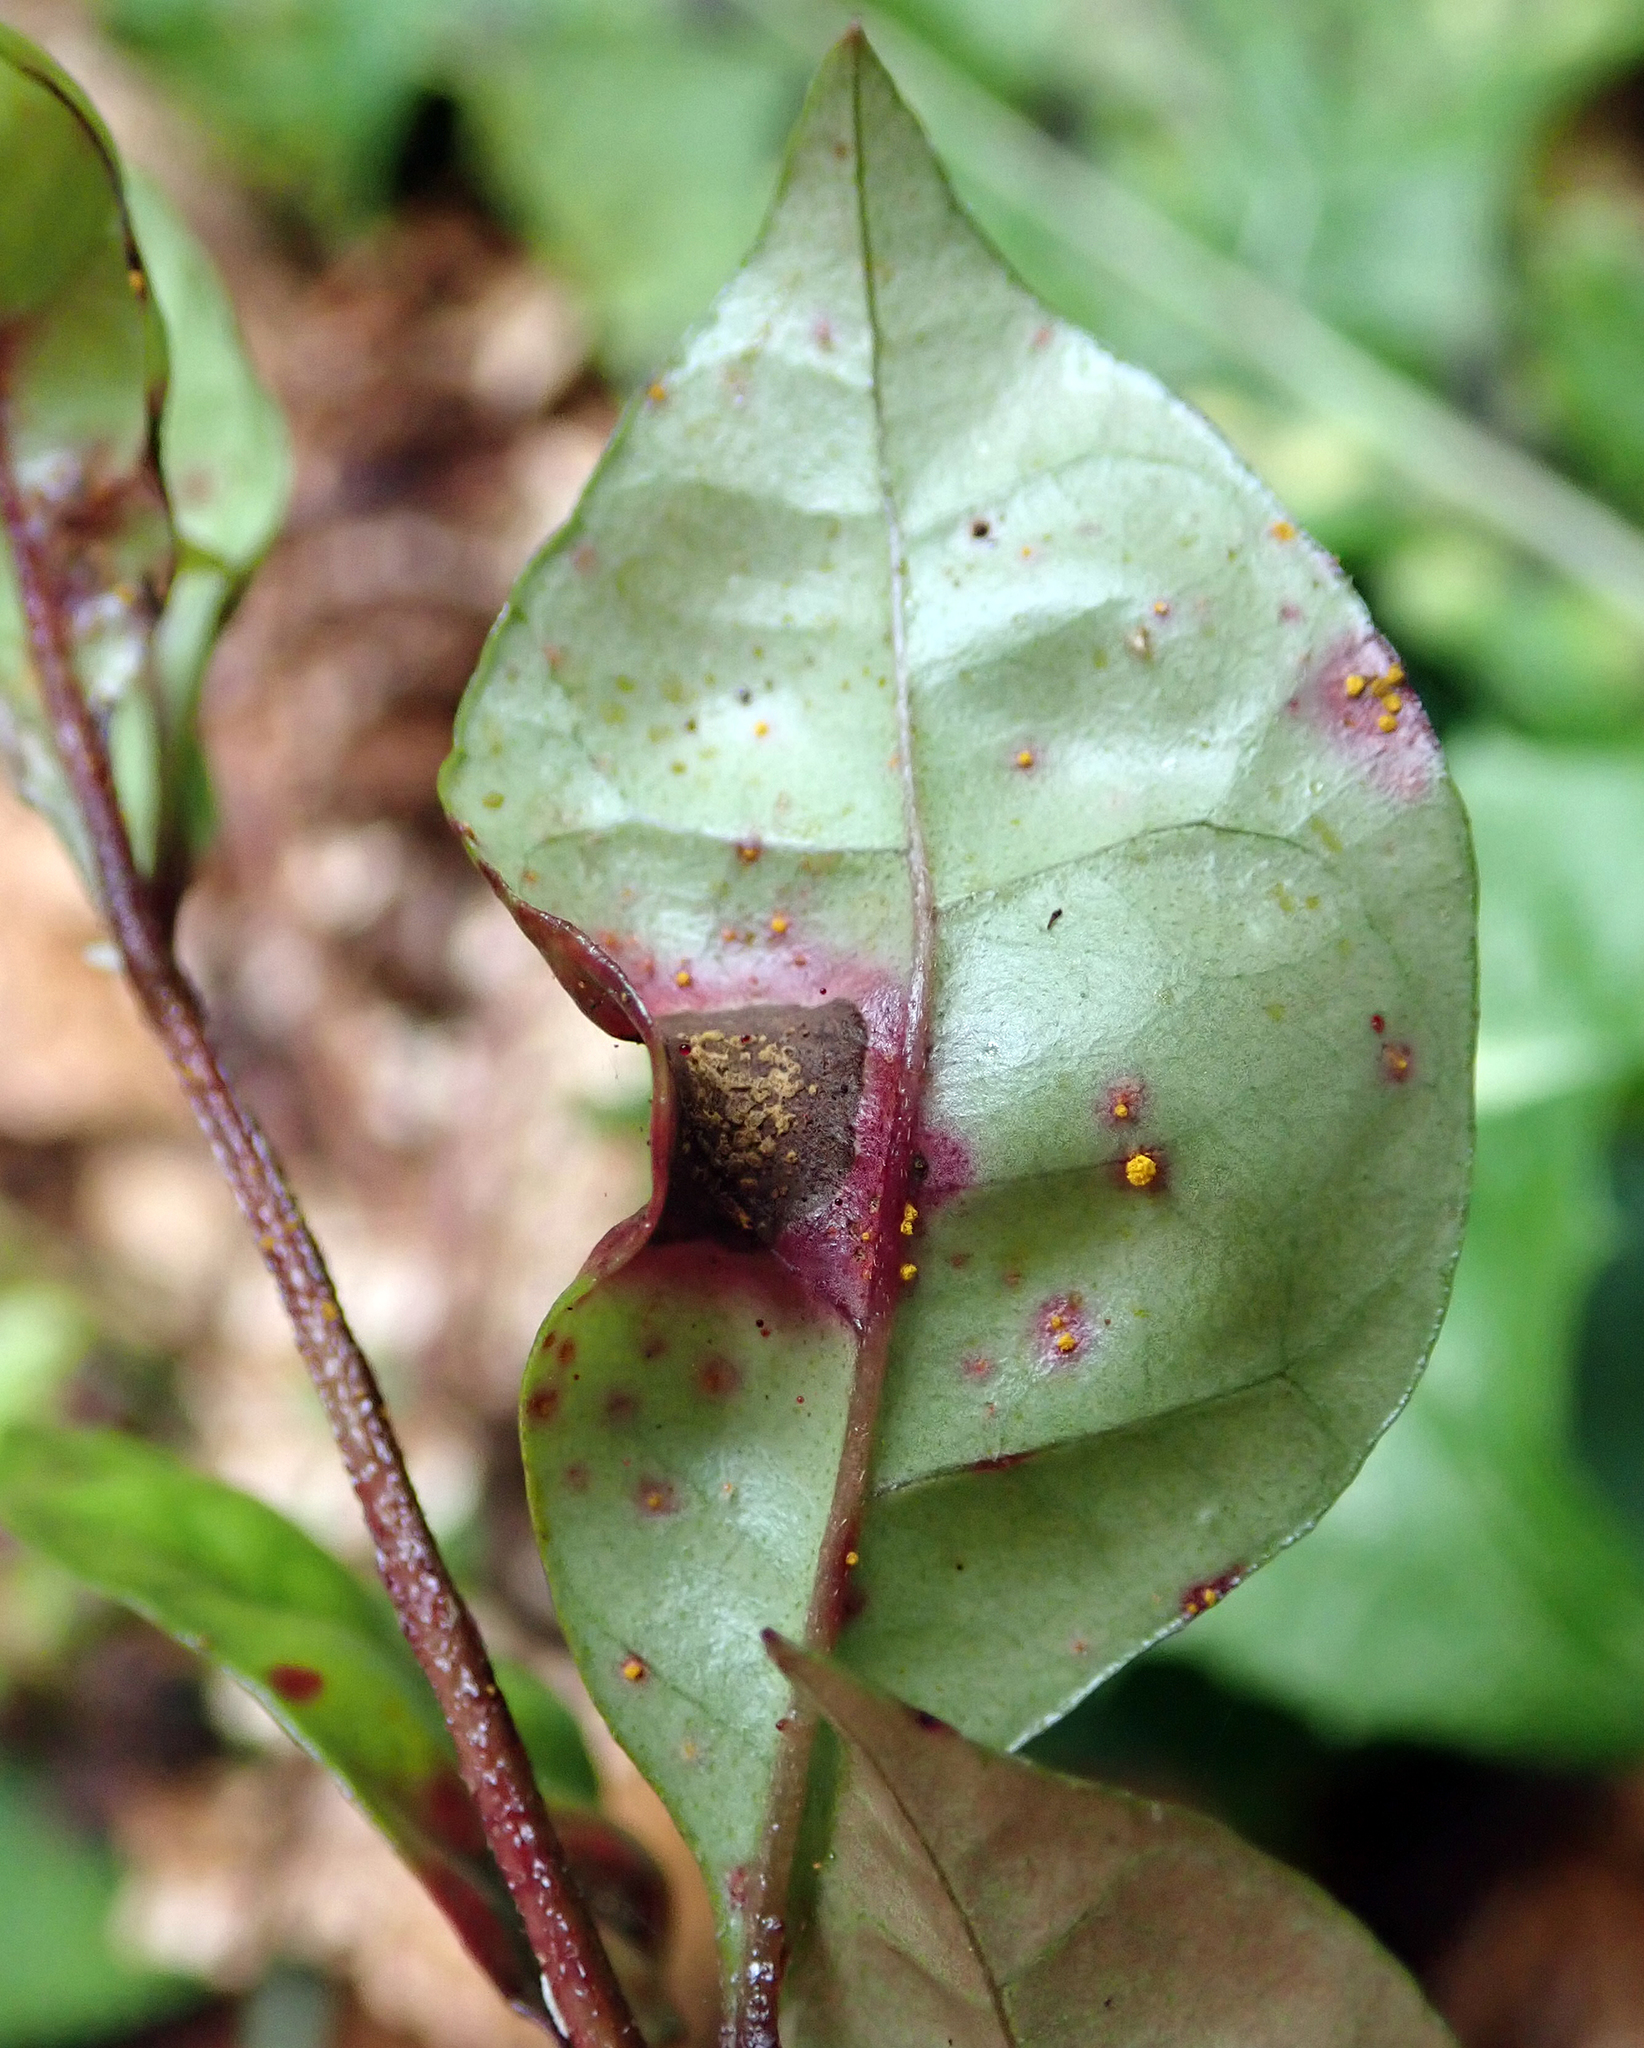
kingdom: Fungi
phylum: Basidiomycota
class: Pucciniomycetes
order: Pucciniales
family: Sphaerophragmiaceae
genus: Austropuccinia
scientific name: Austropuccinia psidii
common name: Myrtle rust
